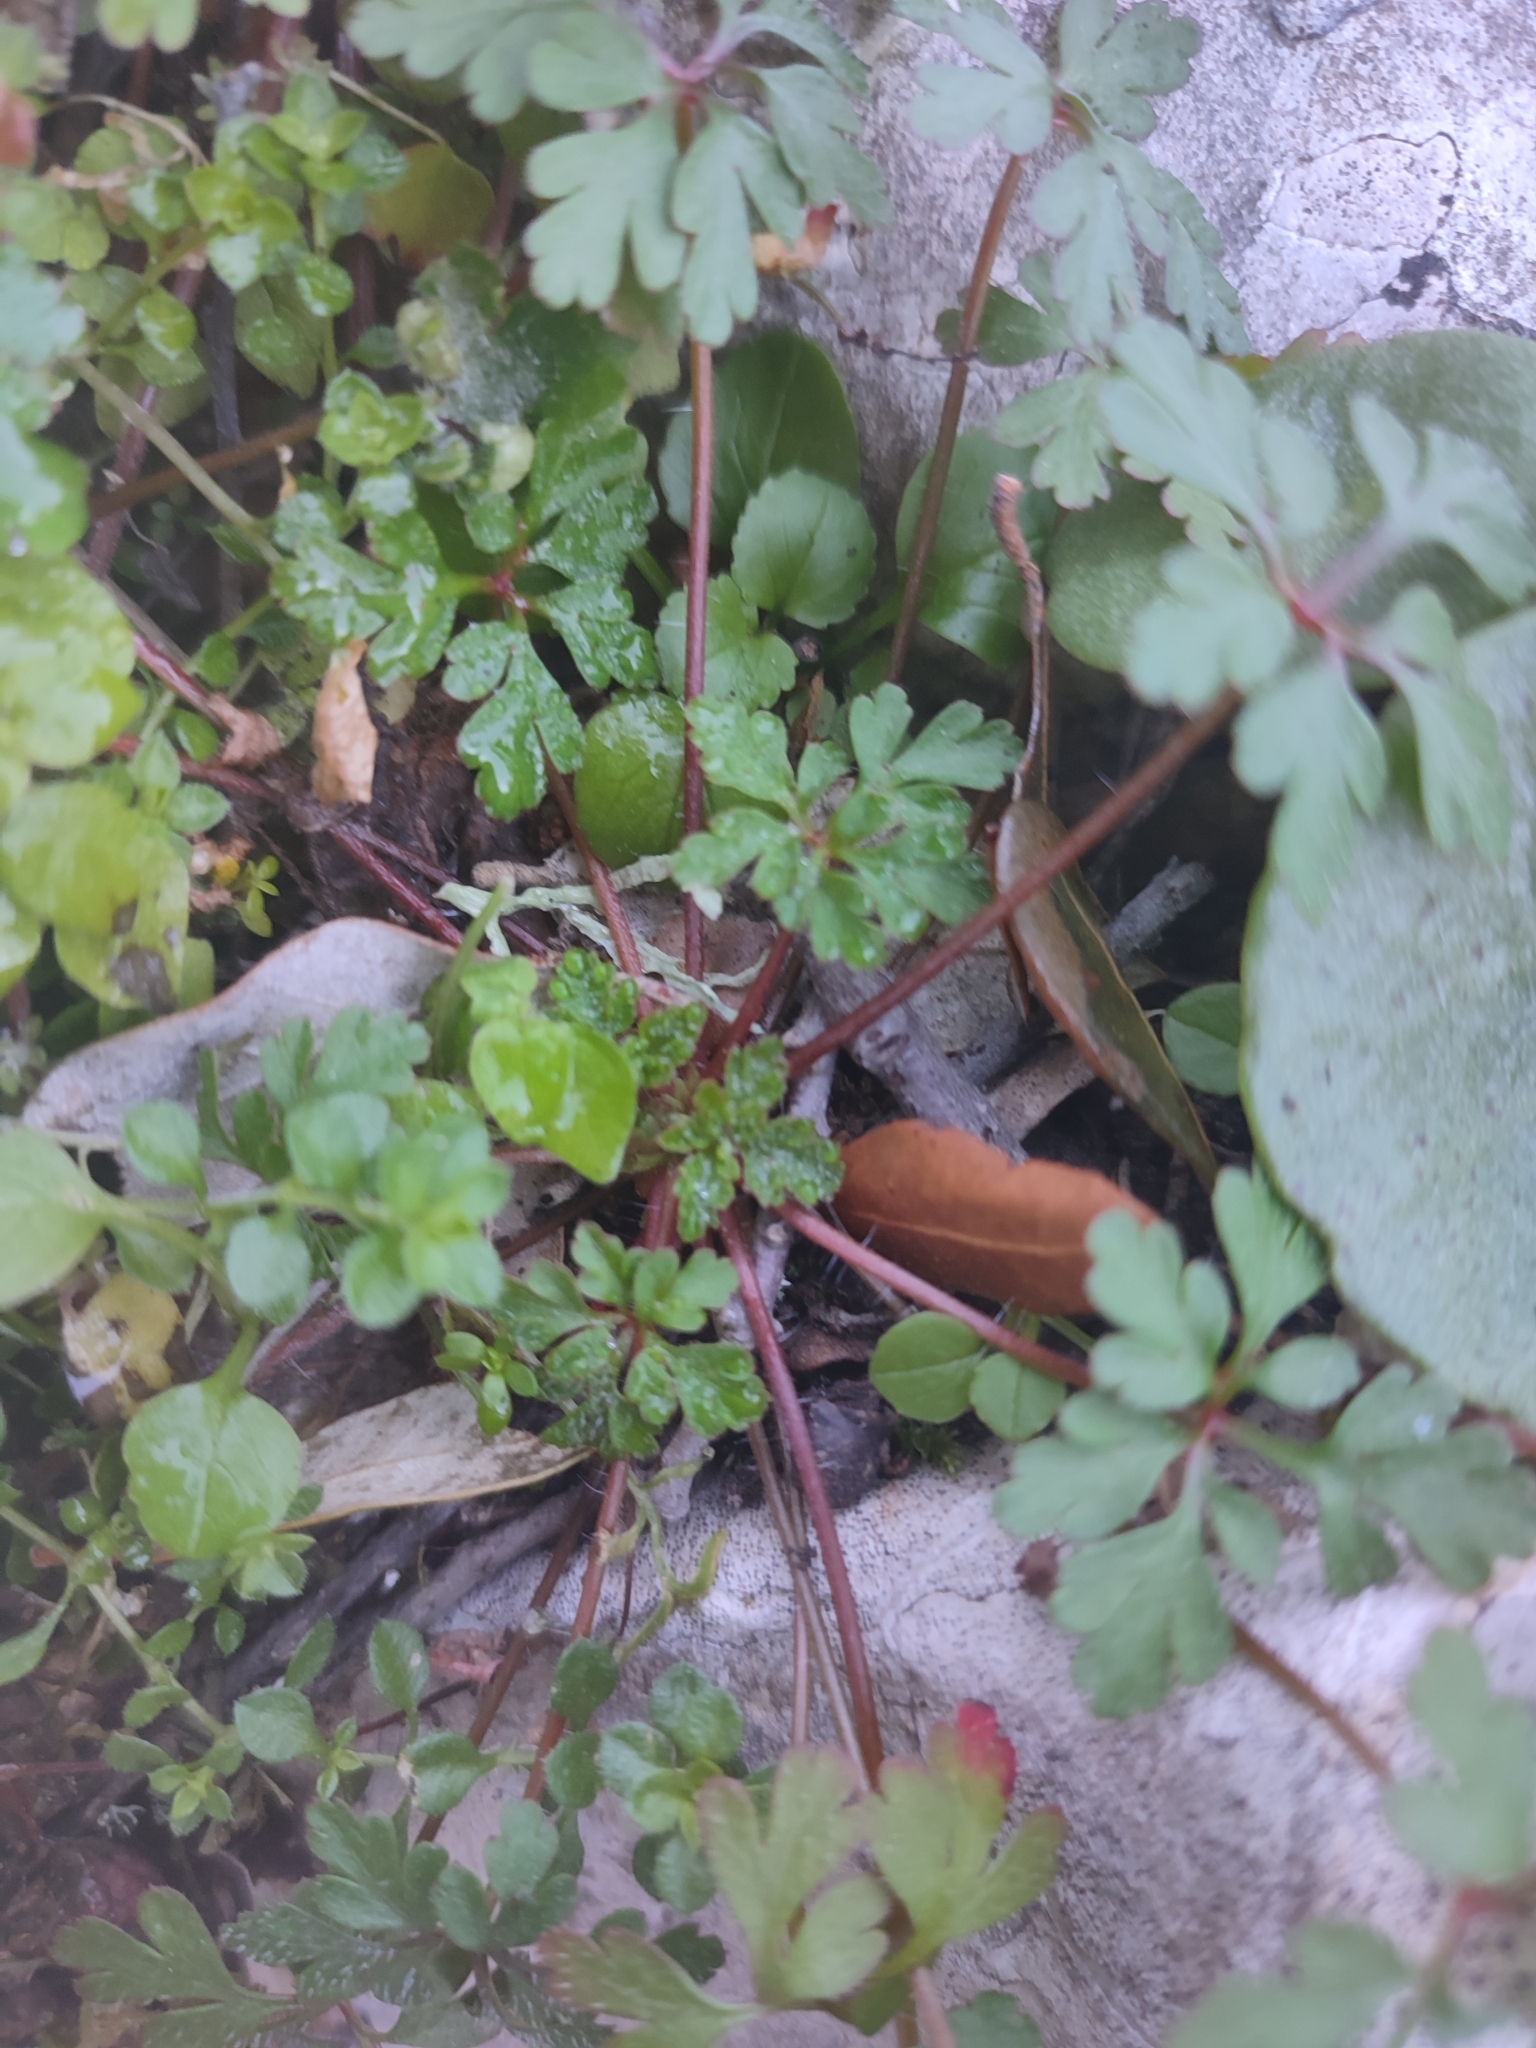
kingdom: Plantae
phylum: Tracheophyta
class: Magnoliopsida
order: Geraniales
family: Geraniaceae
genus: Geranium
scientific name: Geranium purpureum
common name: Little-robin
